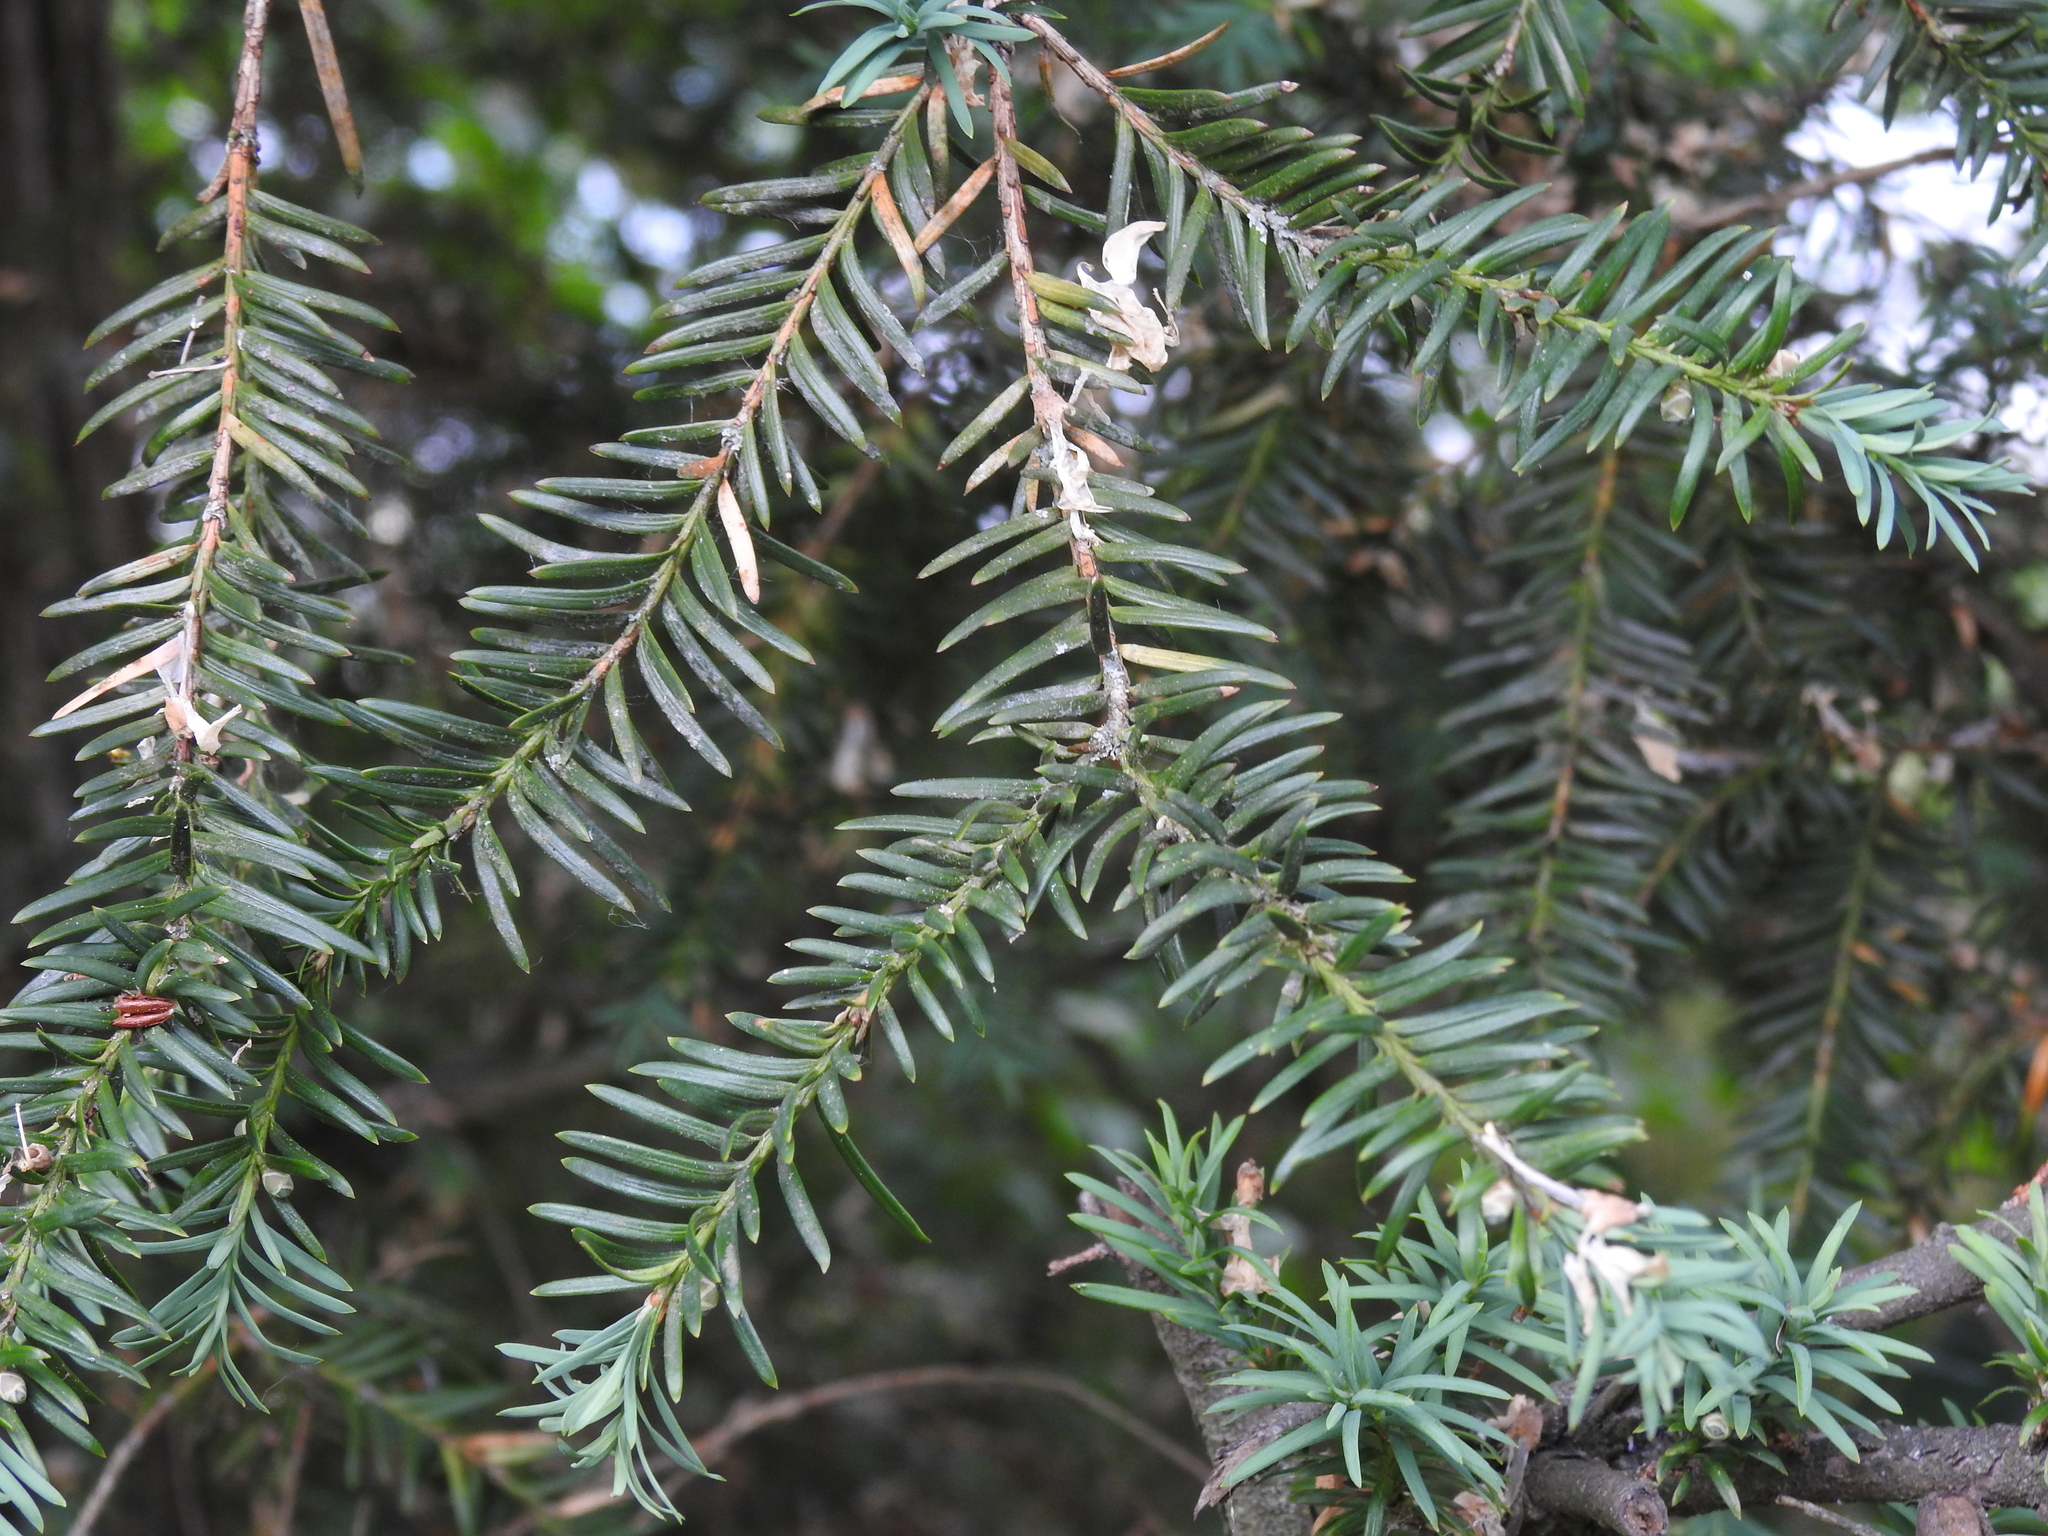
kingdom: Plantae
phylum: Tracheophyta
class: Pinopsida
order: Pinales
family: Taxaceae
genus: Taxus
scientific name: Taxus baccata
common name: Yew
